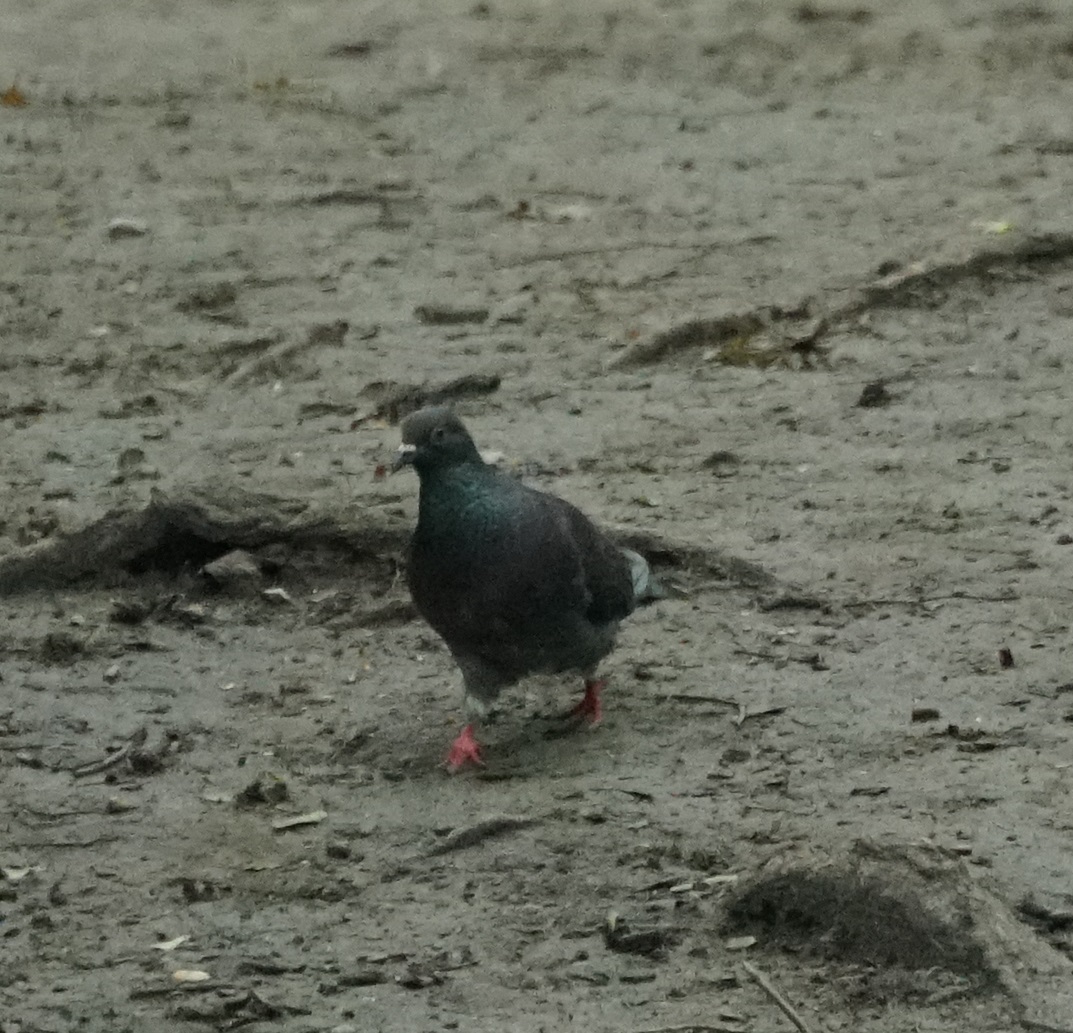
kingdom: Animalia
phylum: Chordata
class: Aves
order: Columbiformes
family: Columbidae
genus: Columba
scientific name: Columba livia
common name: Rock pigeon
